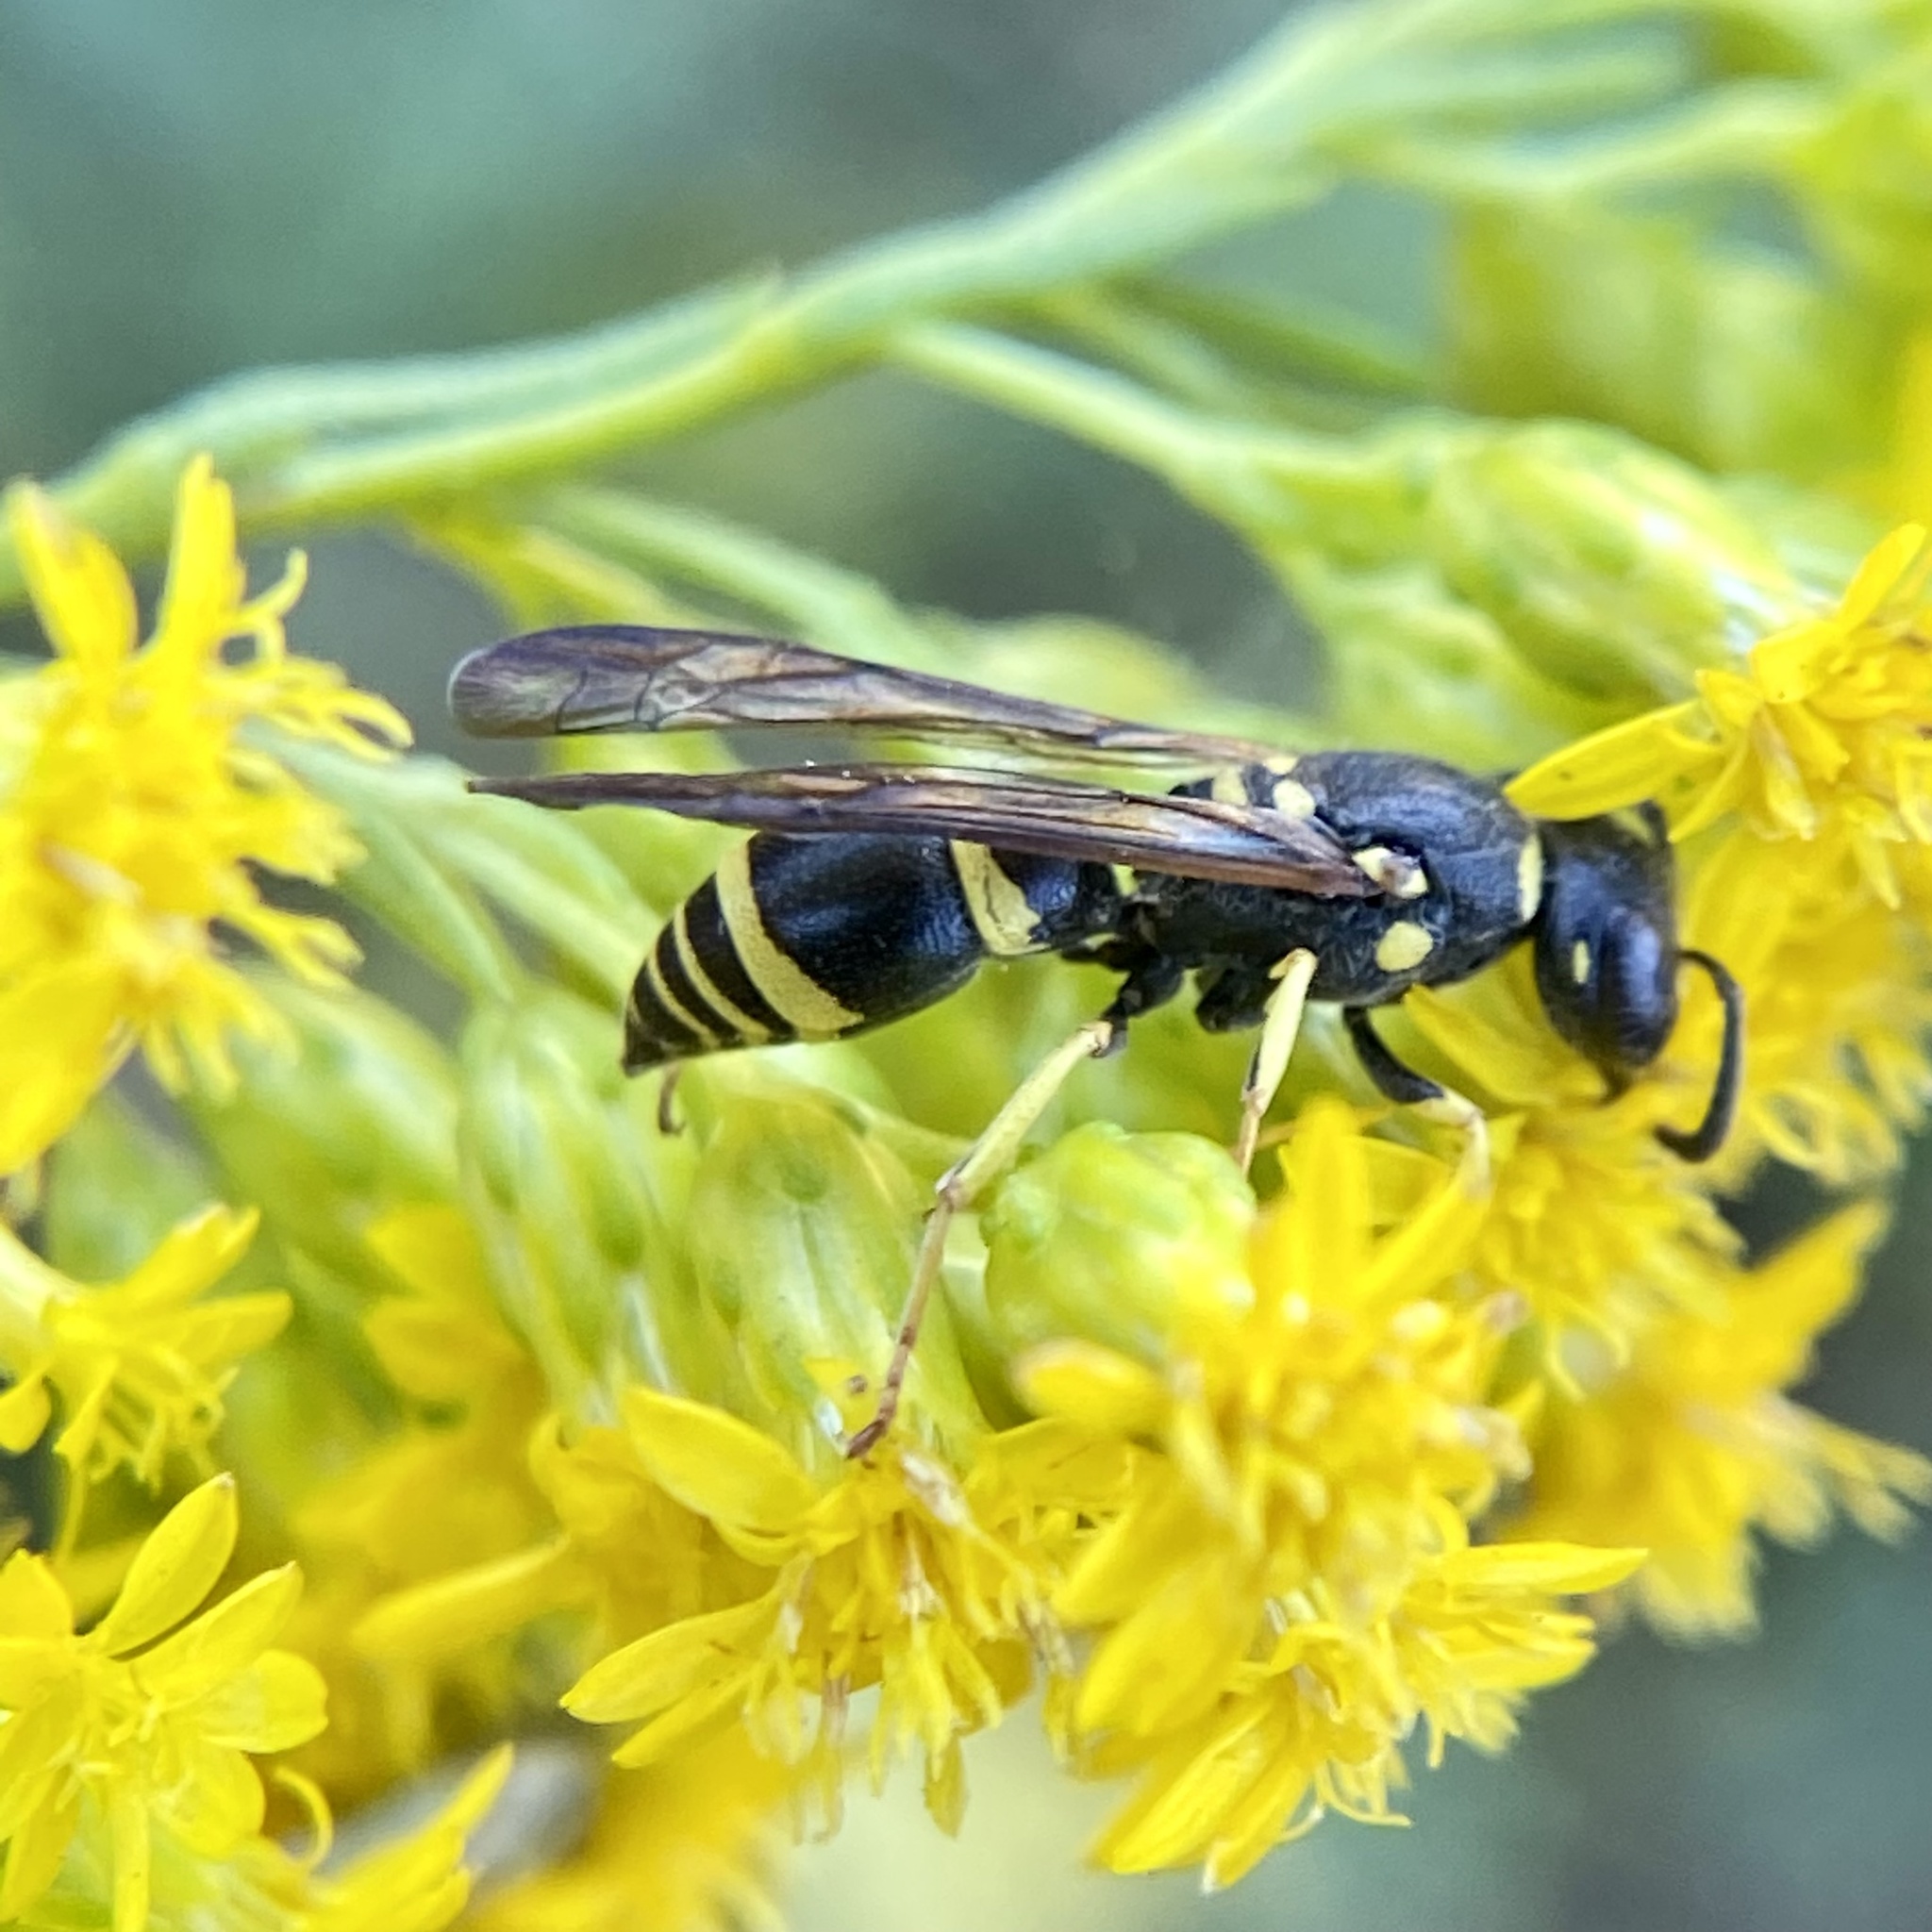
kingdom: Animalia
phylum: Arthropoda
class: Insecta
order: Hymenoptera
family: Vespidae
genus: Ancistrocerus
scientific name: Ancistrocerus adiabatus
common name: Bramble mason wasp
